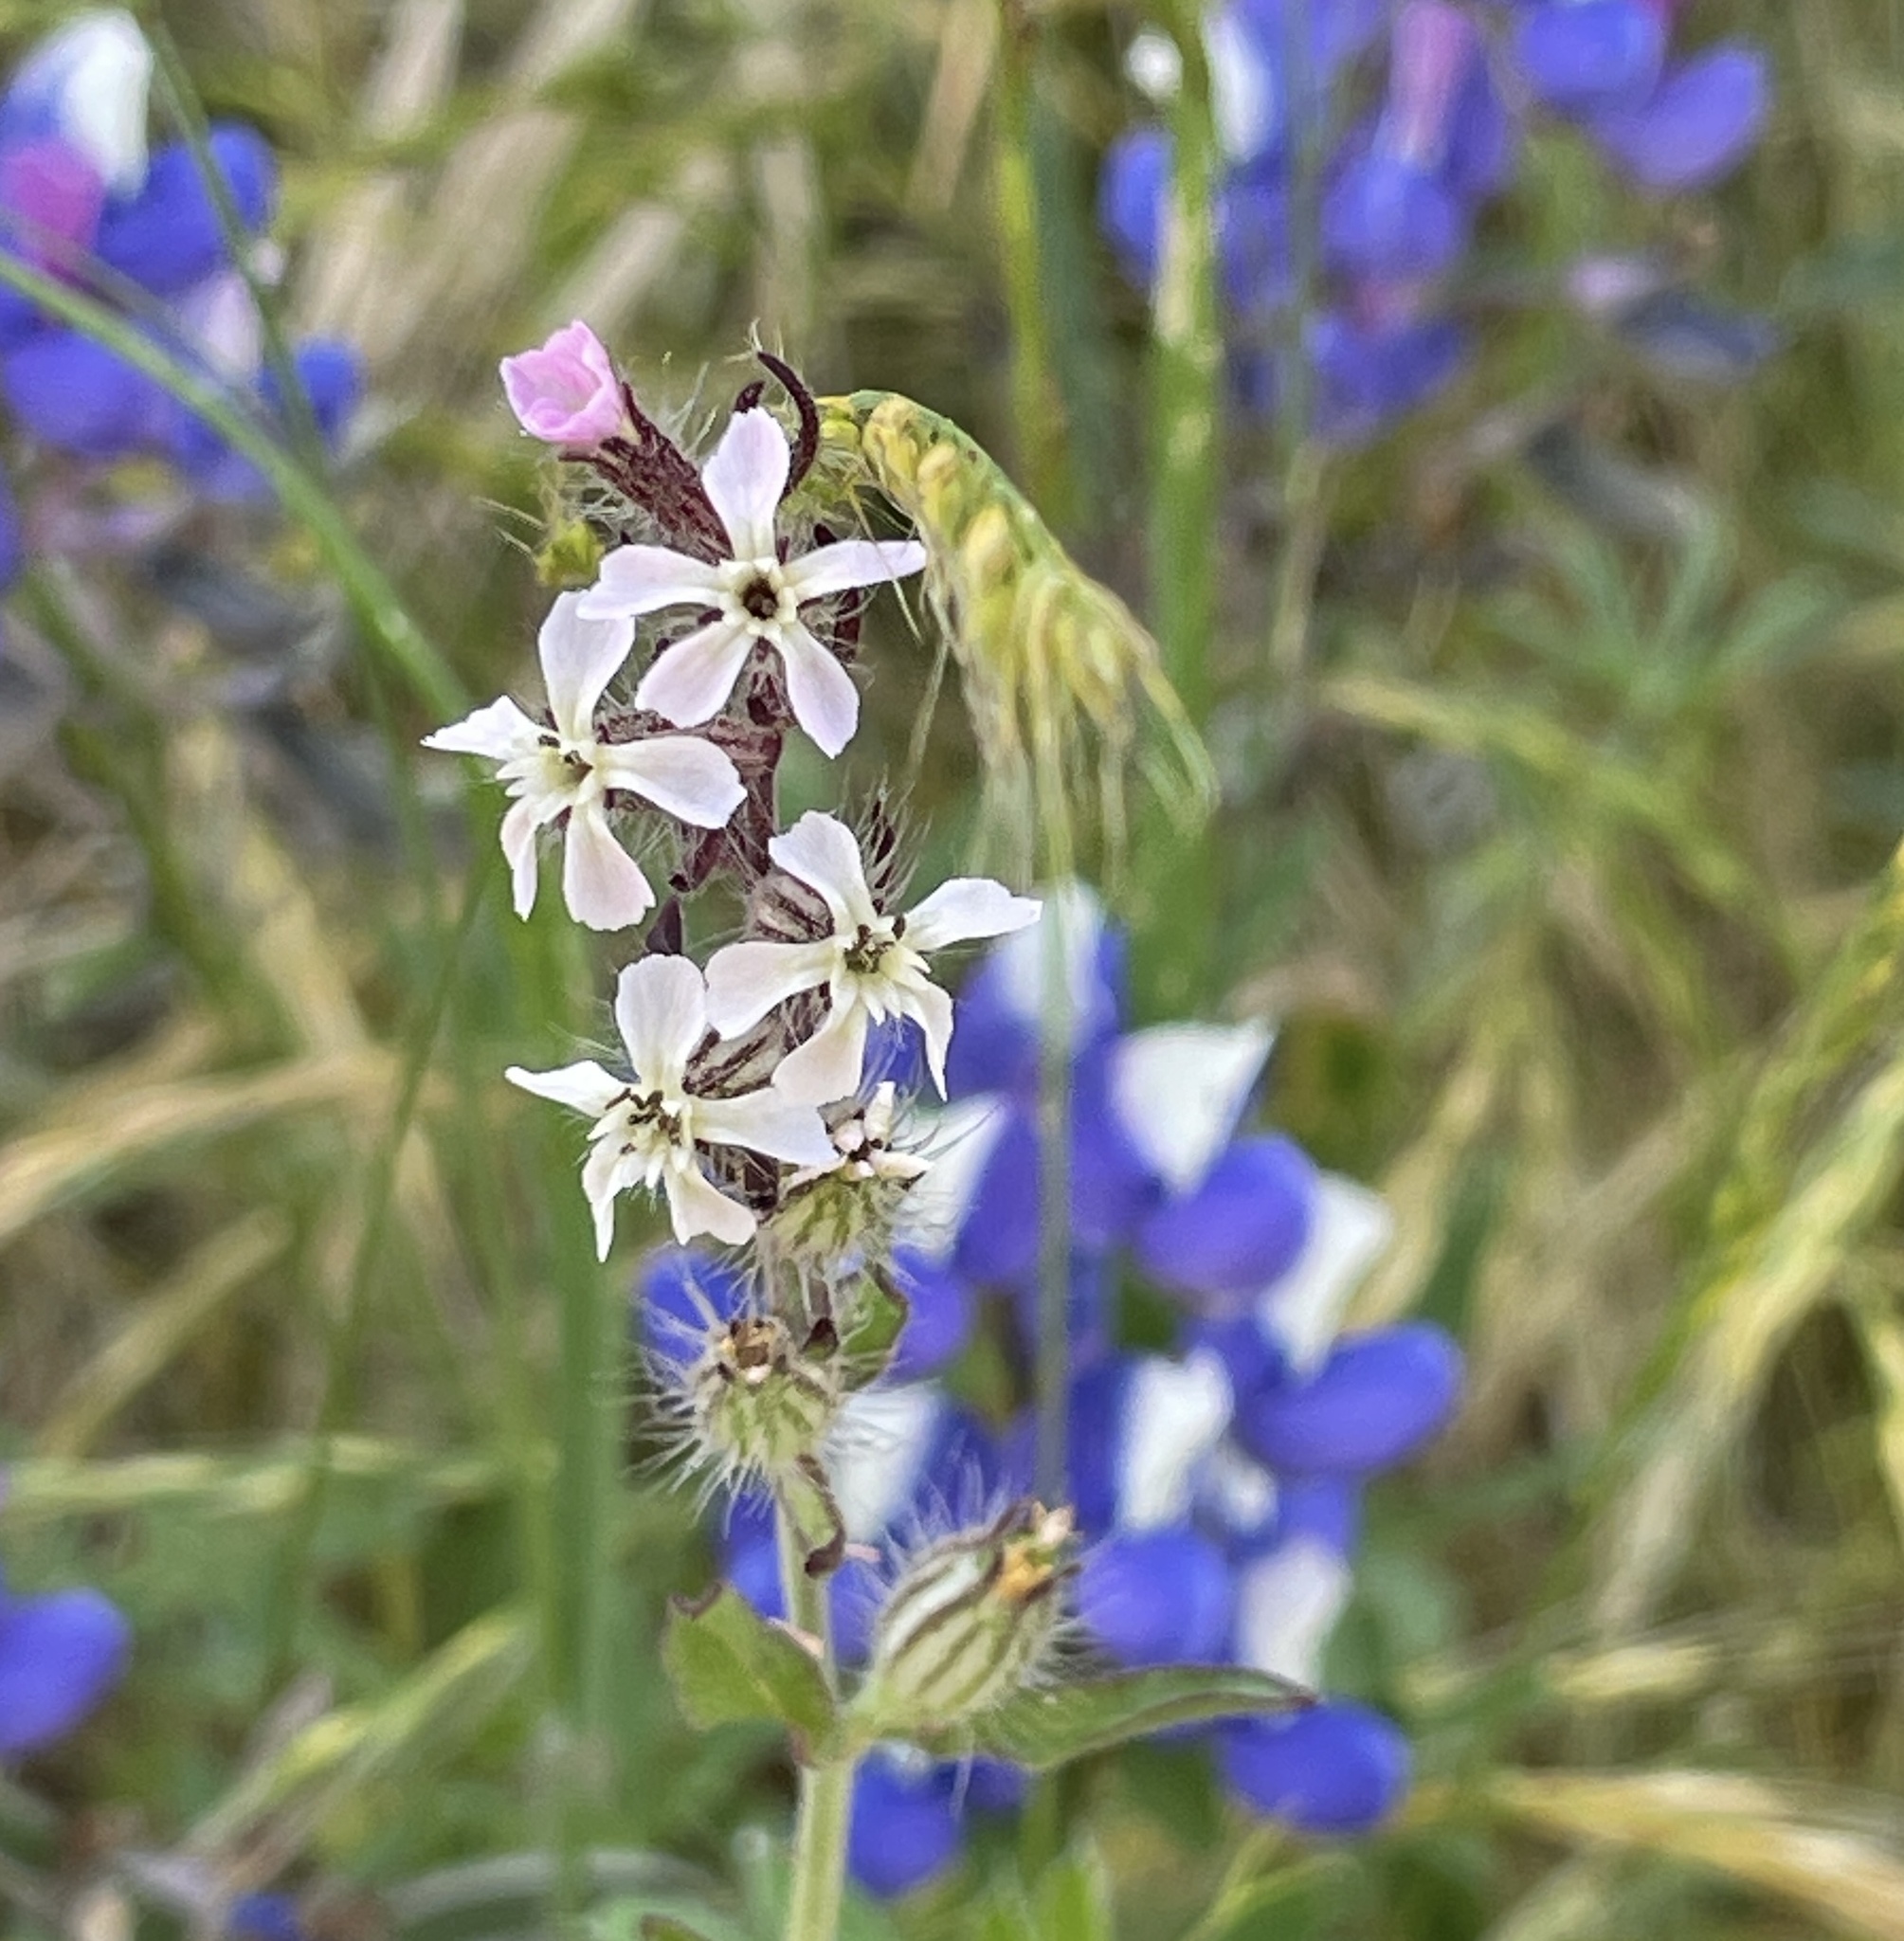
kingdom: Plantae
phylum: Tracheophyta
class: Magnoliopsida
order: Caryophyllales
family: Caryophyllaceae
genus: Silene
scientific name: Silene gallica
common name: Small-flowered catchfly
